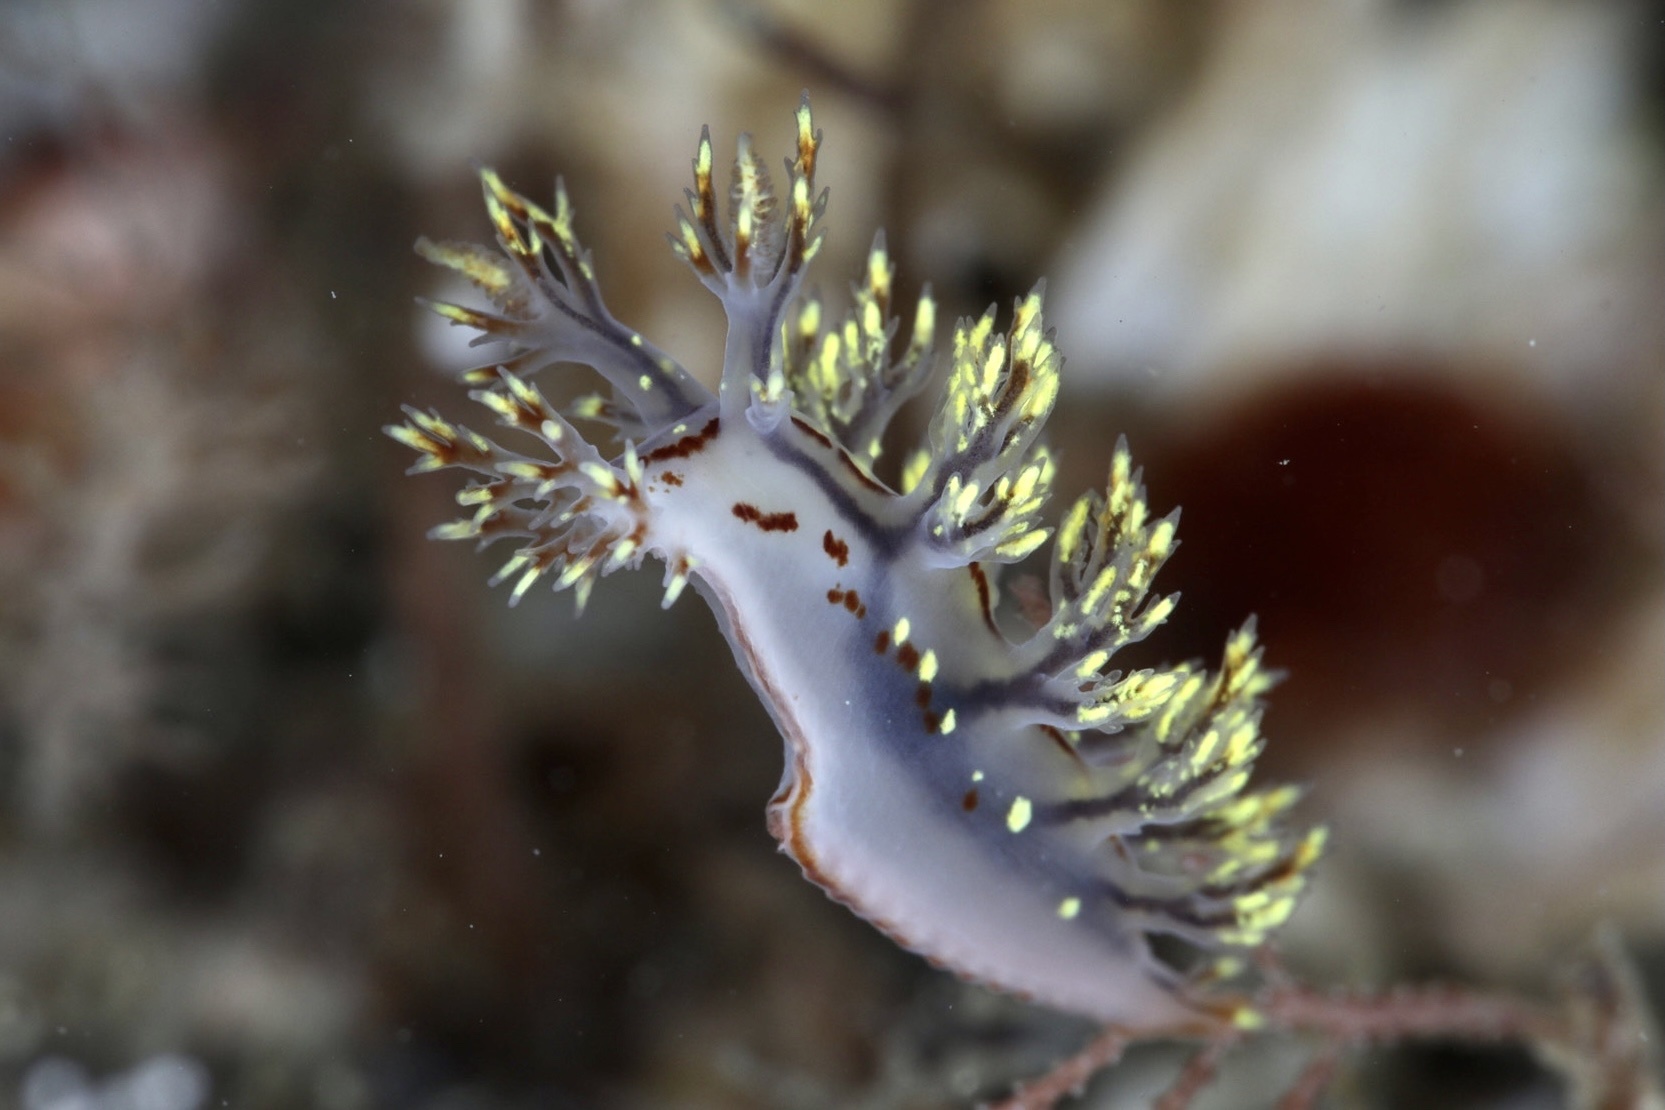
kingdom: Animalia
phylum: Mollusca
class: Gastropoda
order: Nudibranchia
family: Dendronotidae
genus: Dendronotus
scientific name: Dendronotus yrjargul
